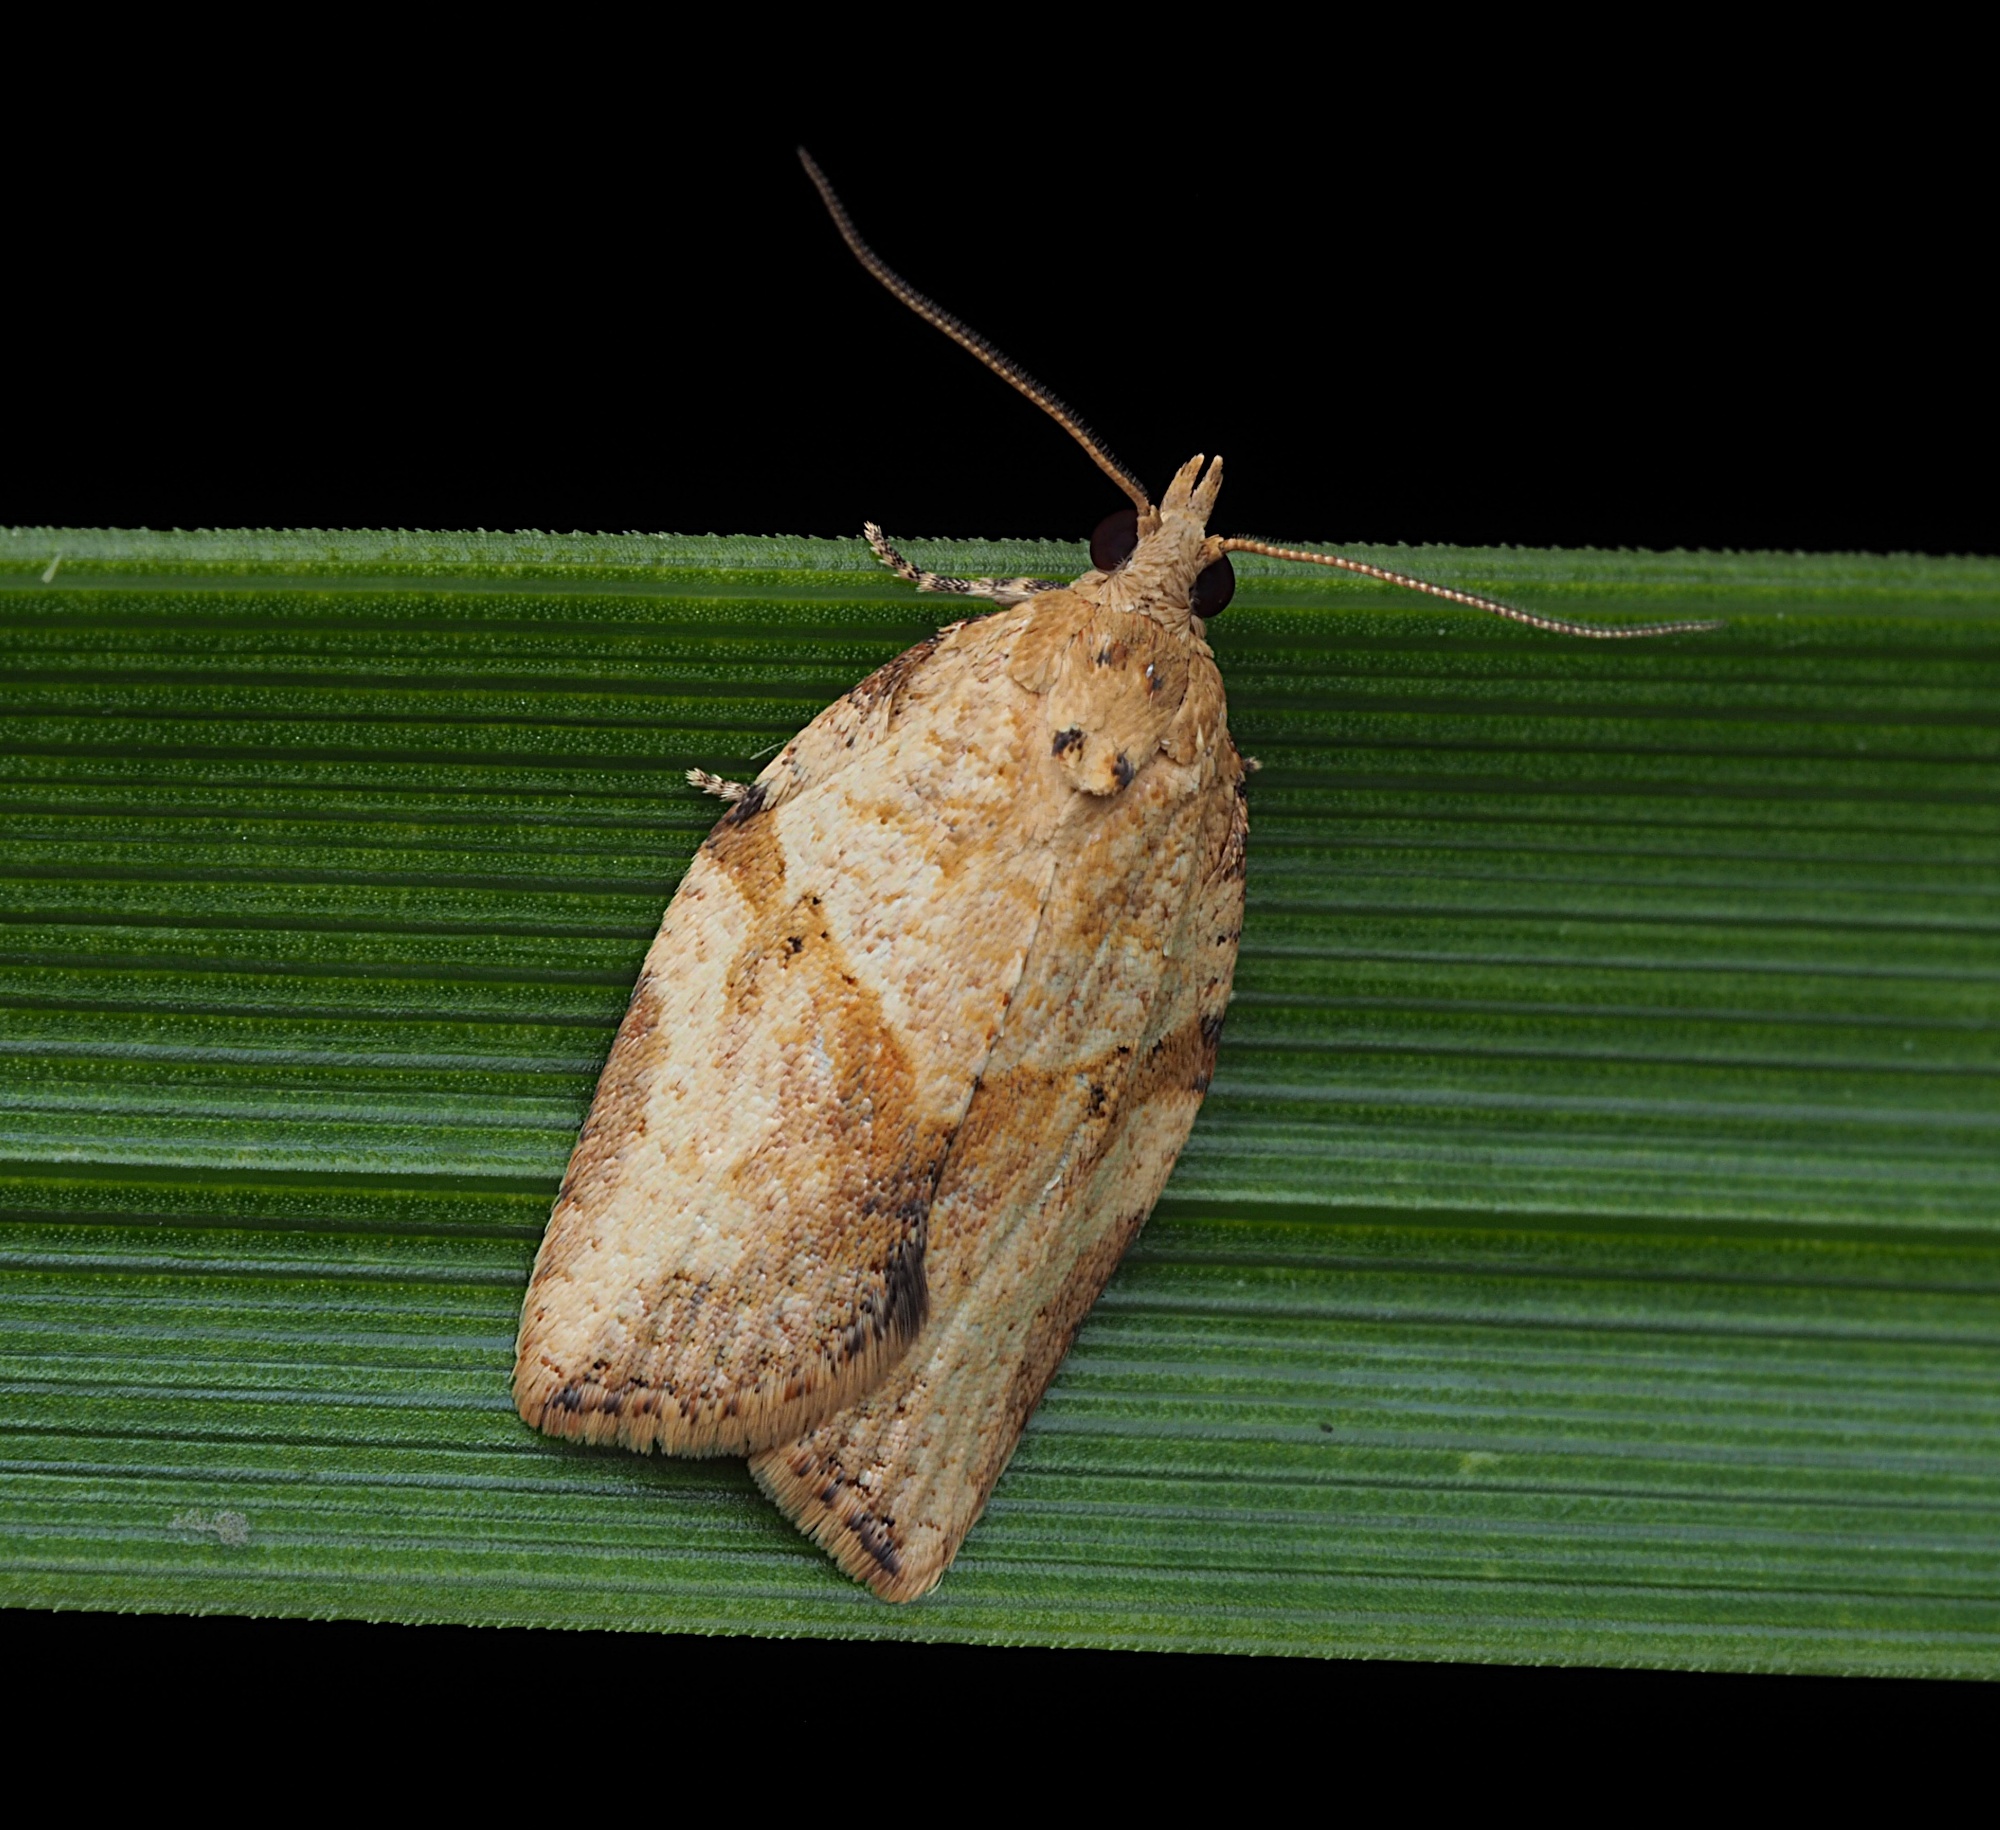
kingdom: Animalia
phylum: Arthropoda
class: Insecta
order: Lepidoptera
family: Tortricidae
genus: Epiphyas
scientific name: Epiphyas postvittana
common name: Light brown apple moth
